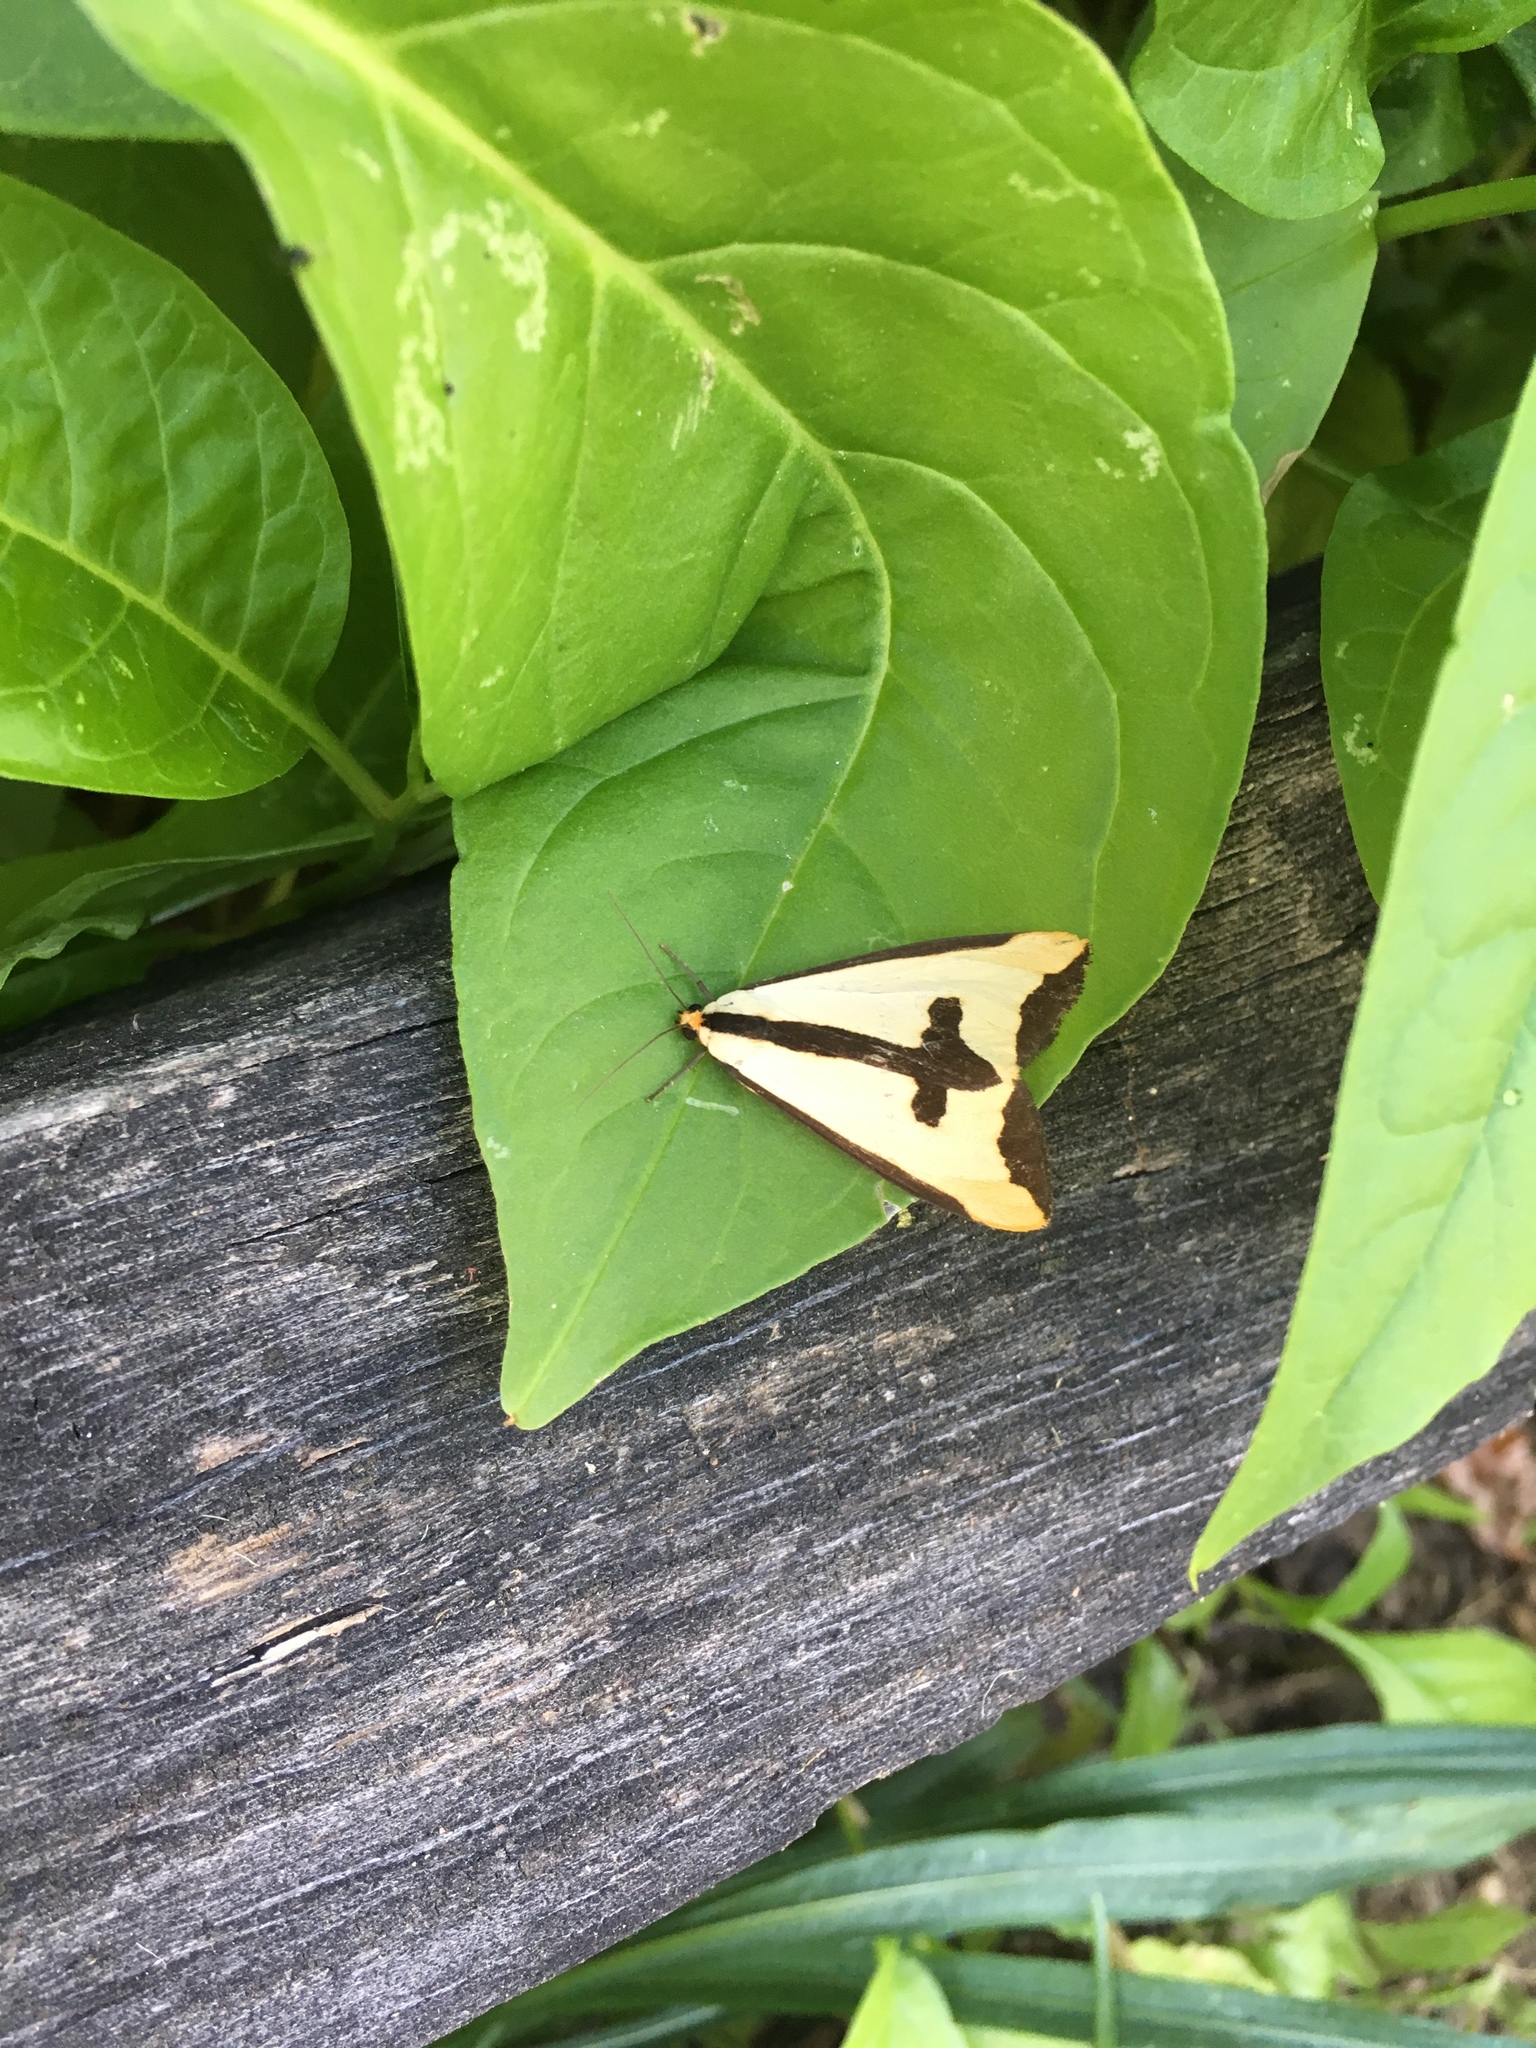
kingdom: Animalia
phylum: Arthropoda
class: Insecta
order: Lepidoptera
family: Erebidae
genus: Haploa
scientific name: Haploa clymene
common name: Clymene moth
